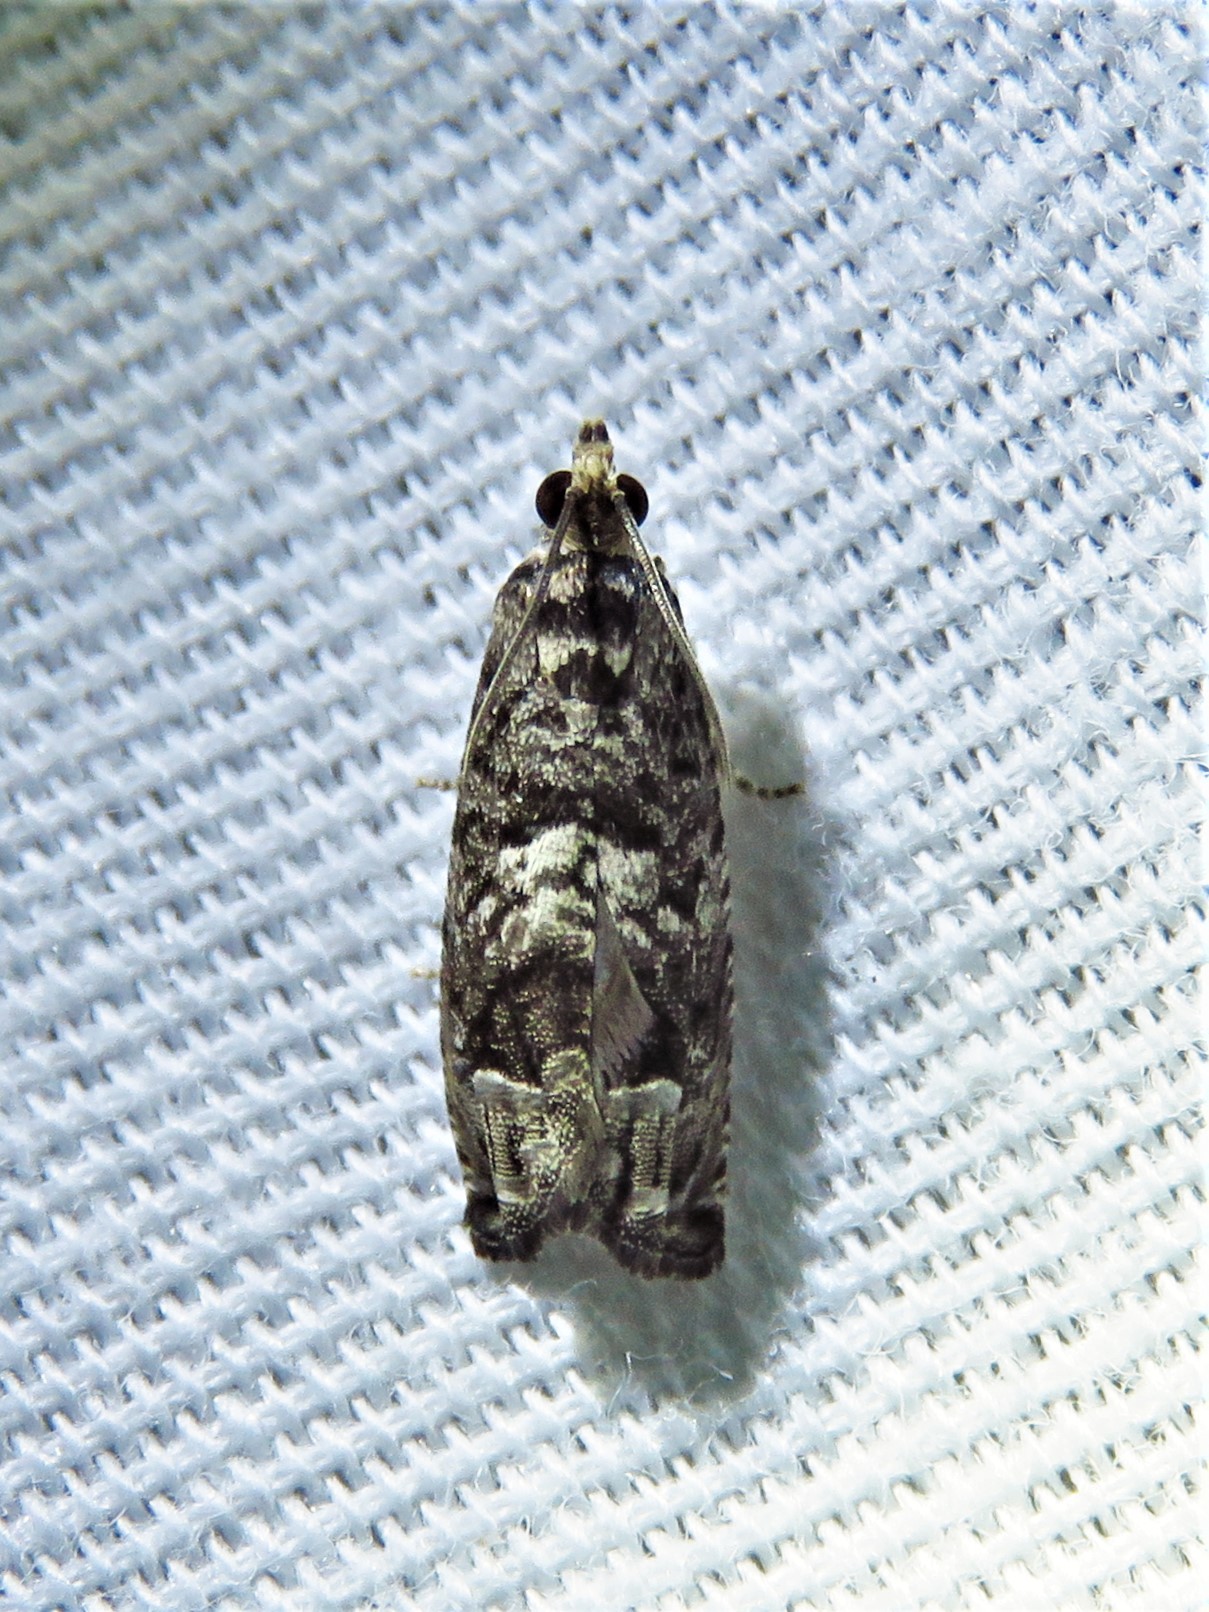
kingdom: Animalia
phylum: Arthropoda
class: Insecta
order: Lepidoptera
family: Tortricidae
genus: Cydia
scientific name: Cydia membrosa
